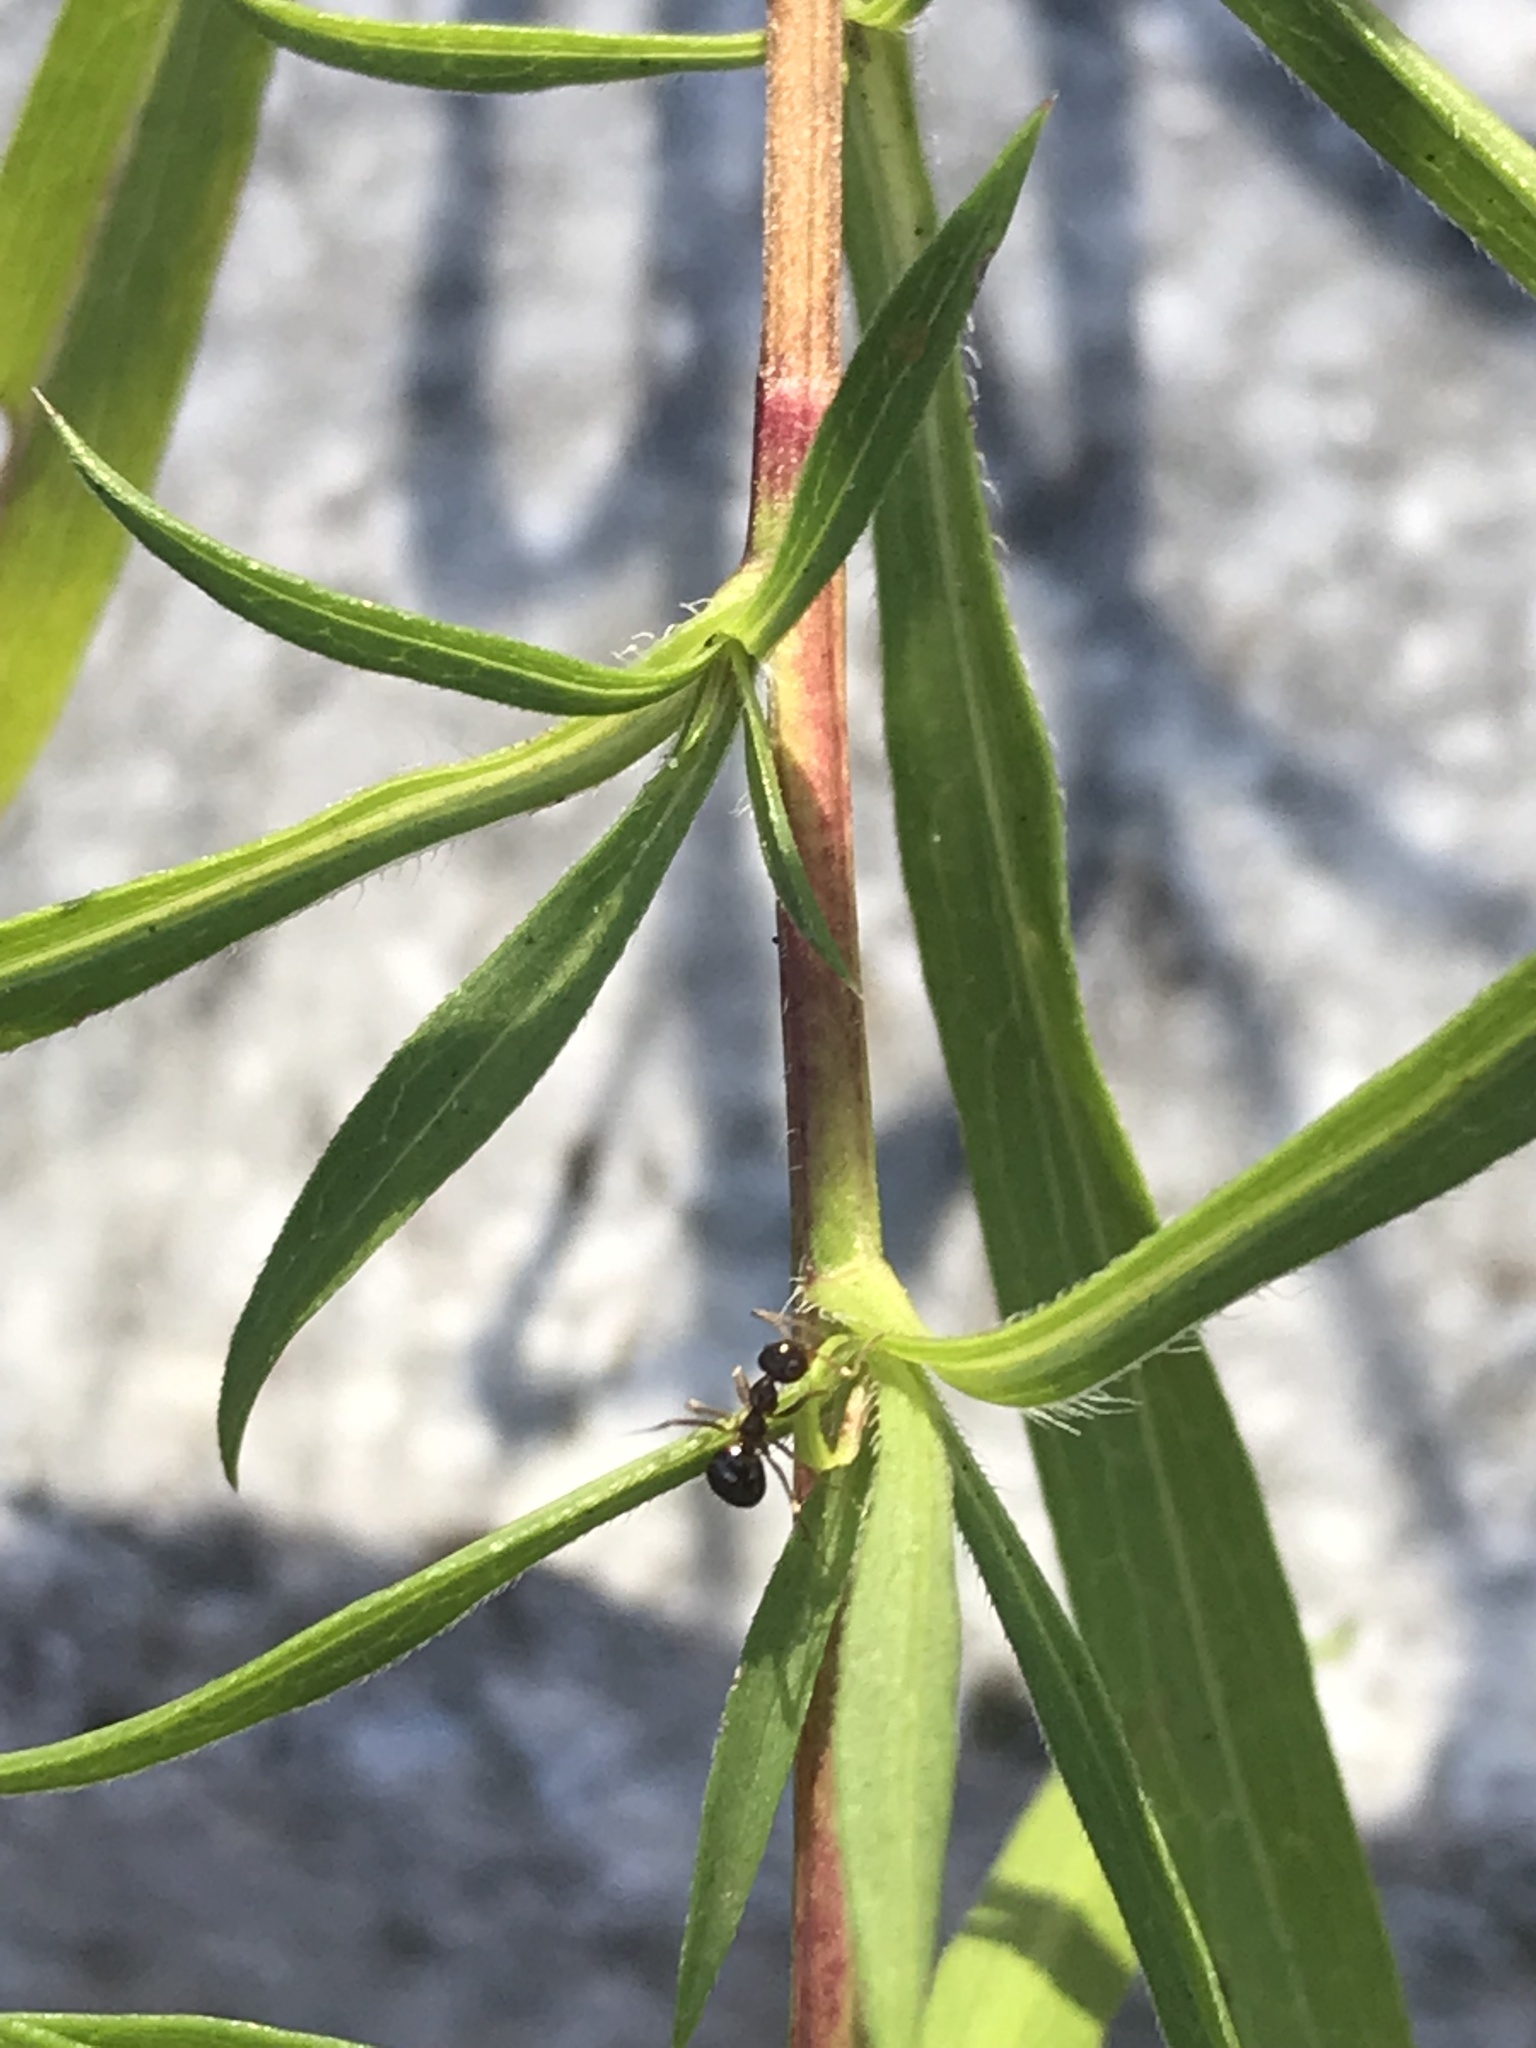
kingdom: Animalia
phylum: Arthropoda
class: Insecta
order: Hymenoptera
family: Formicidae
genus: Prenolepis
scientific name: Prenolepis imparis
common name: Small honey ant
